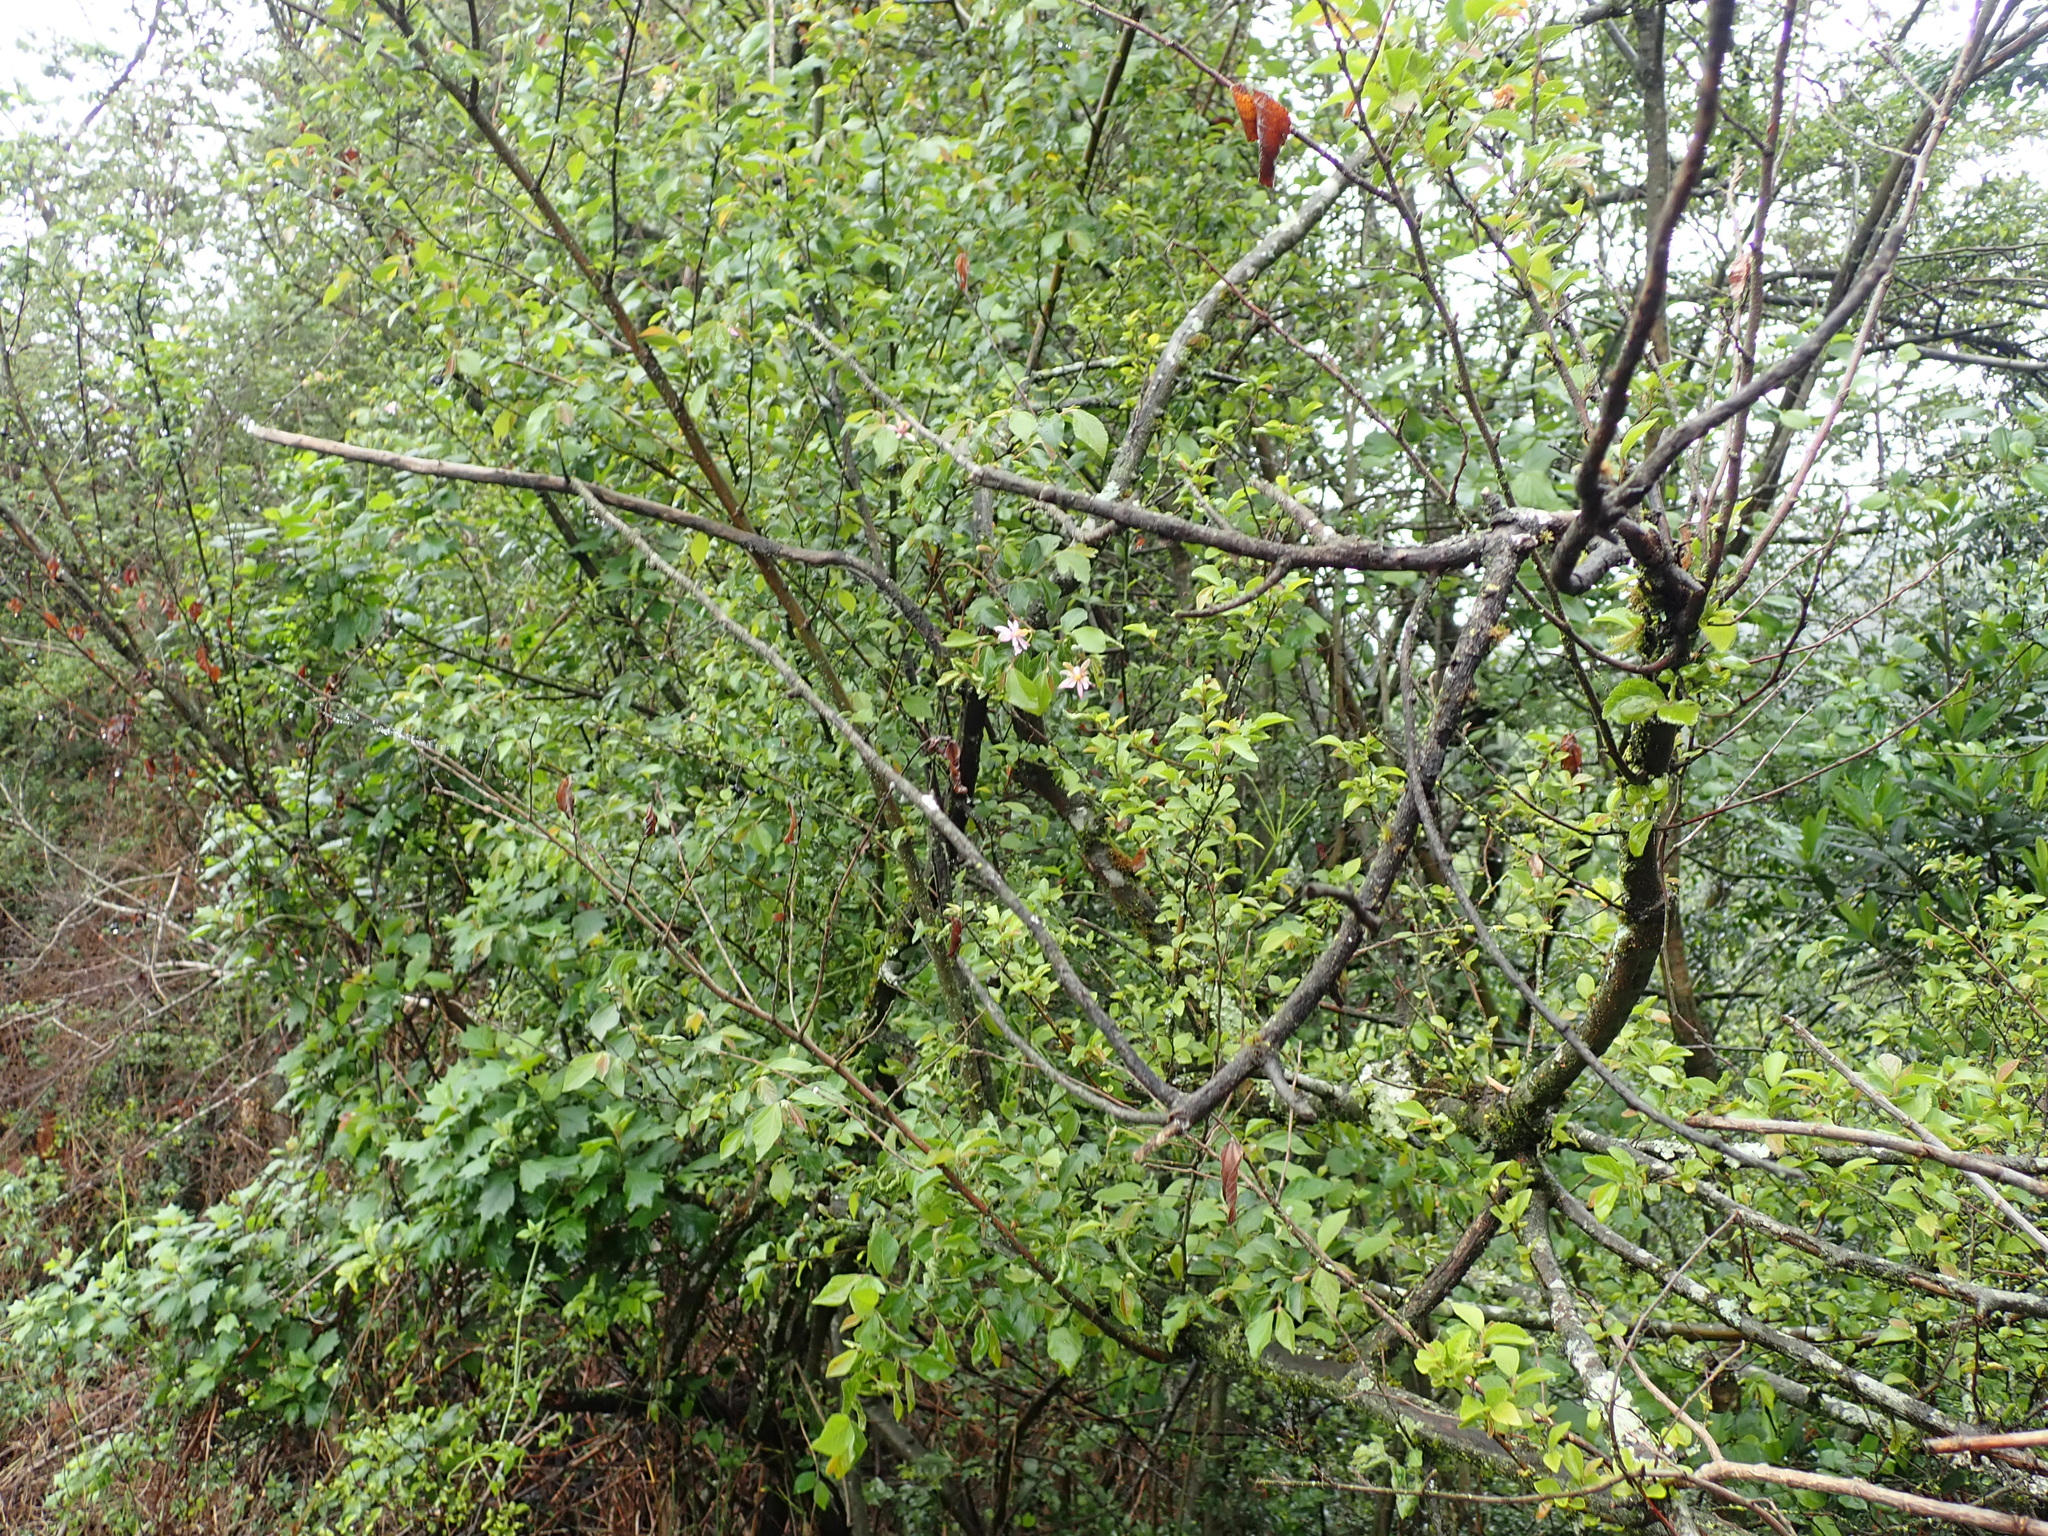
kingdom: Plantae
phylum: Tracheophyta
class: Magnoliopsida
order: Malvales
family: Malvaceae
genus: Grewia
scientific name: Grewia occidentalis
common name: Crossberry
